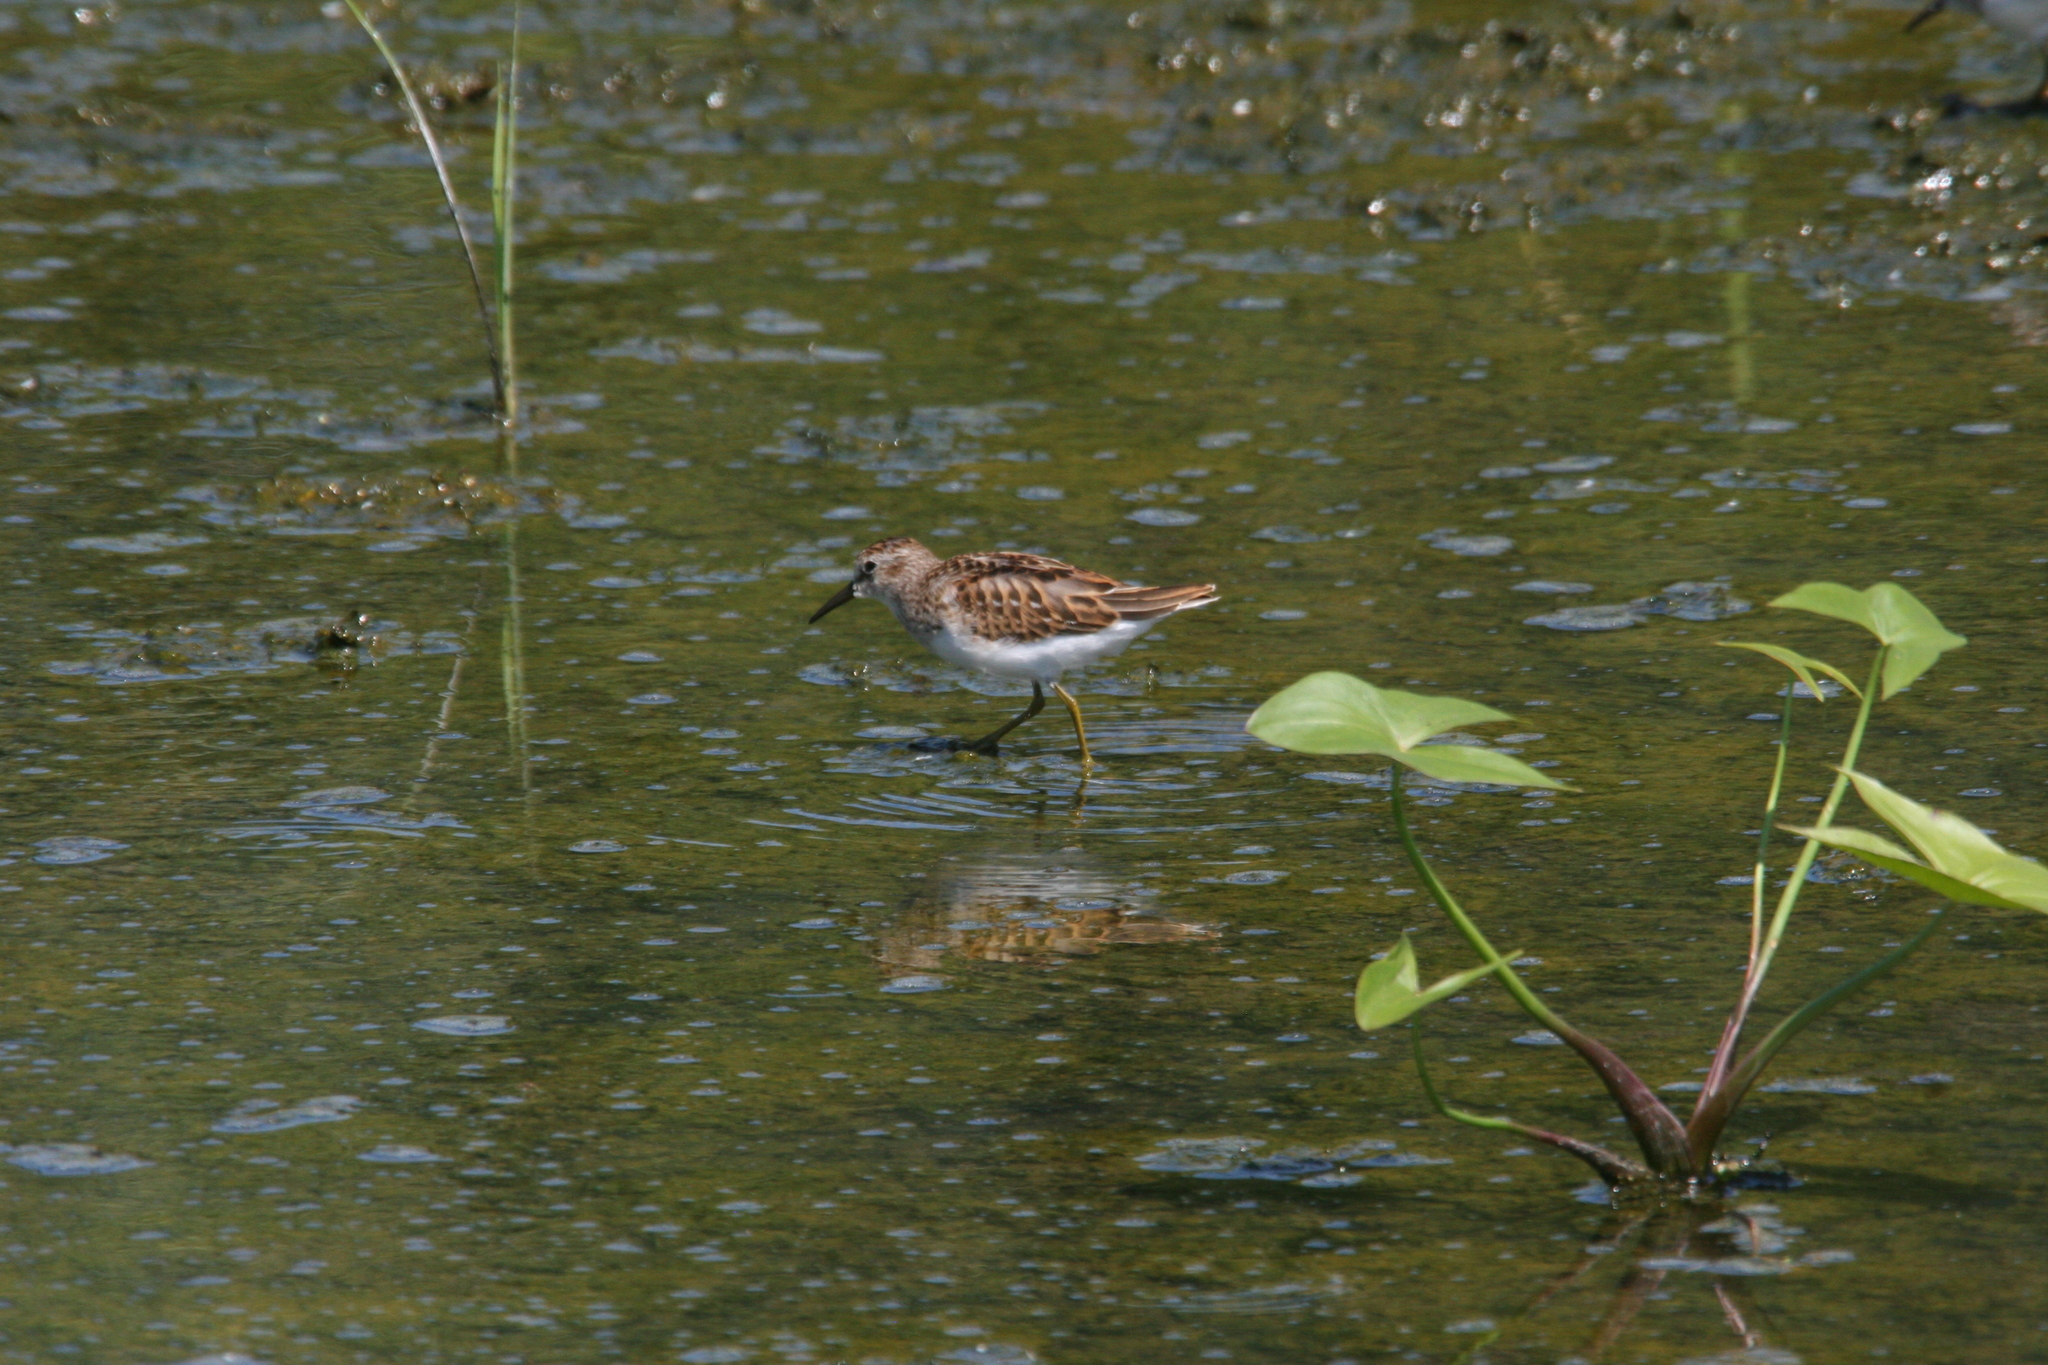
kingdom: Animalia
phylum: Chordata
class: Aves
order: Charadriiformes
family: Scolopacidae
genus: Calidris
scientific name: Calidris minutilla
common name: Least sandpiper
